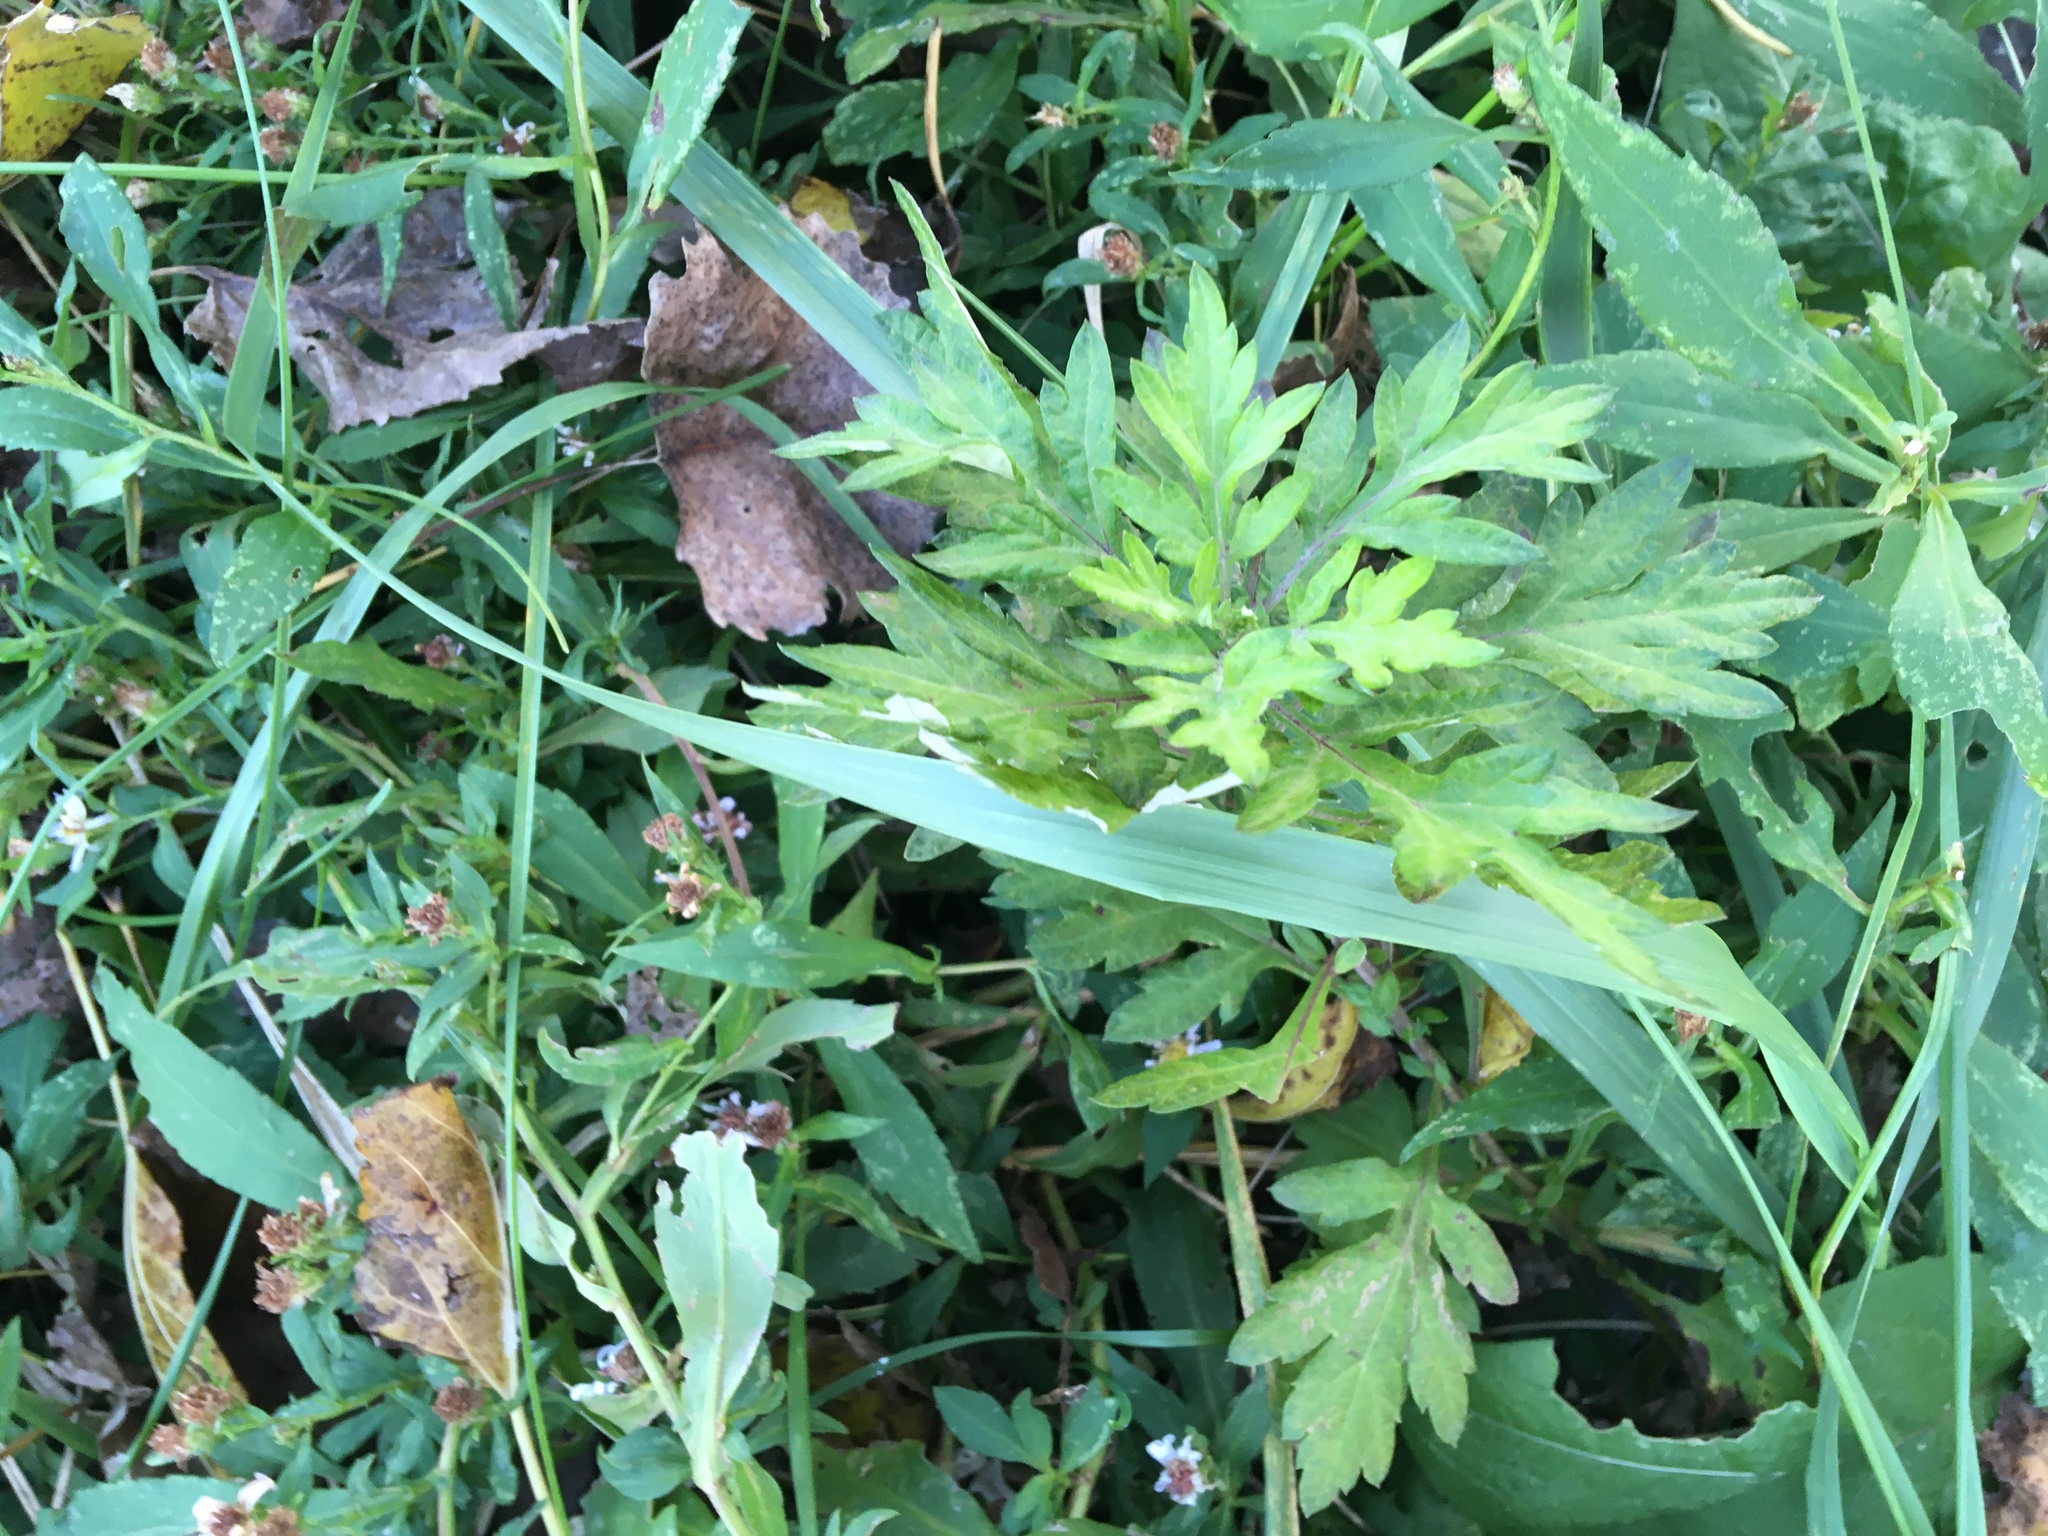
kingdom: Plantae
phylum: Tracheophyta
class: Magnoliopsida
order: Asterales
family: Asteraceae
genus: Artemisia
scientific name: Artemisia vulgaris
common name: Mugwort
